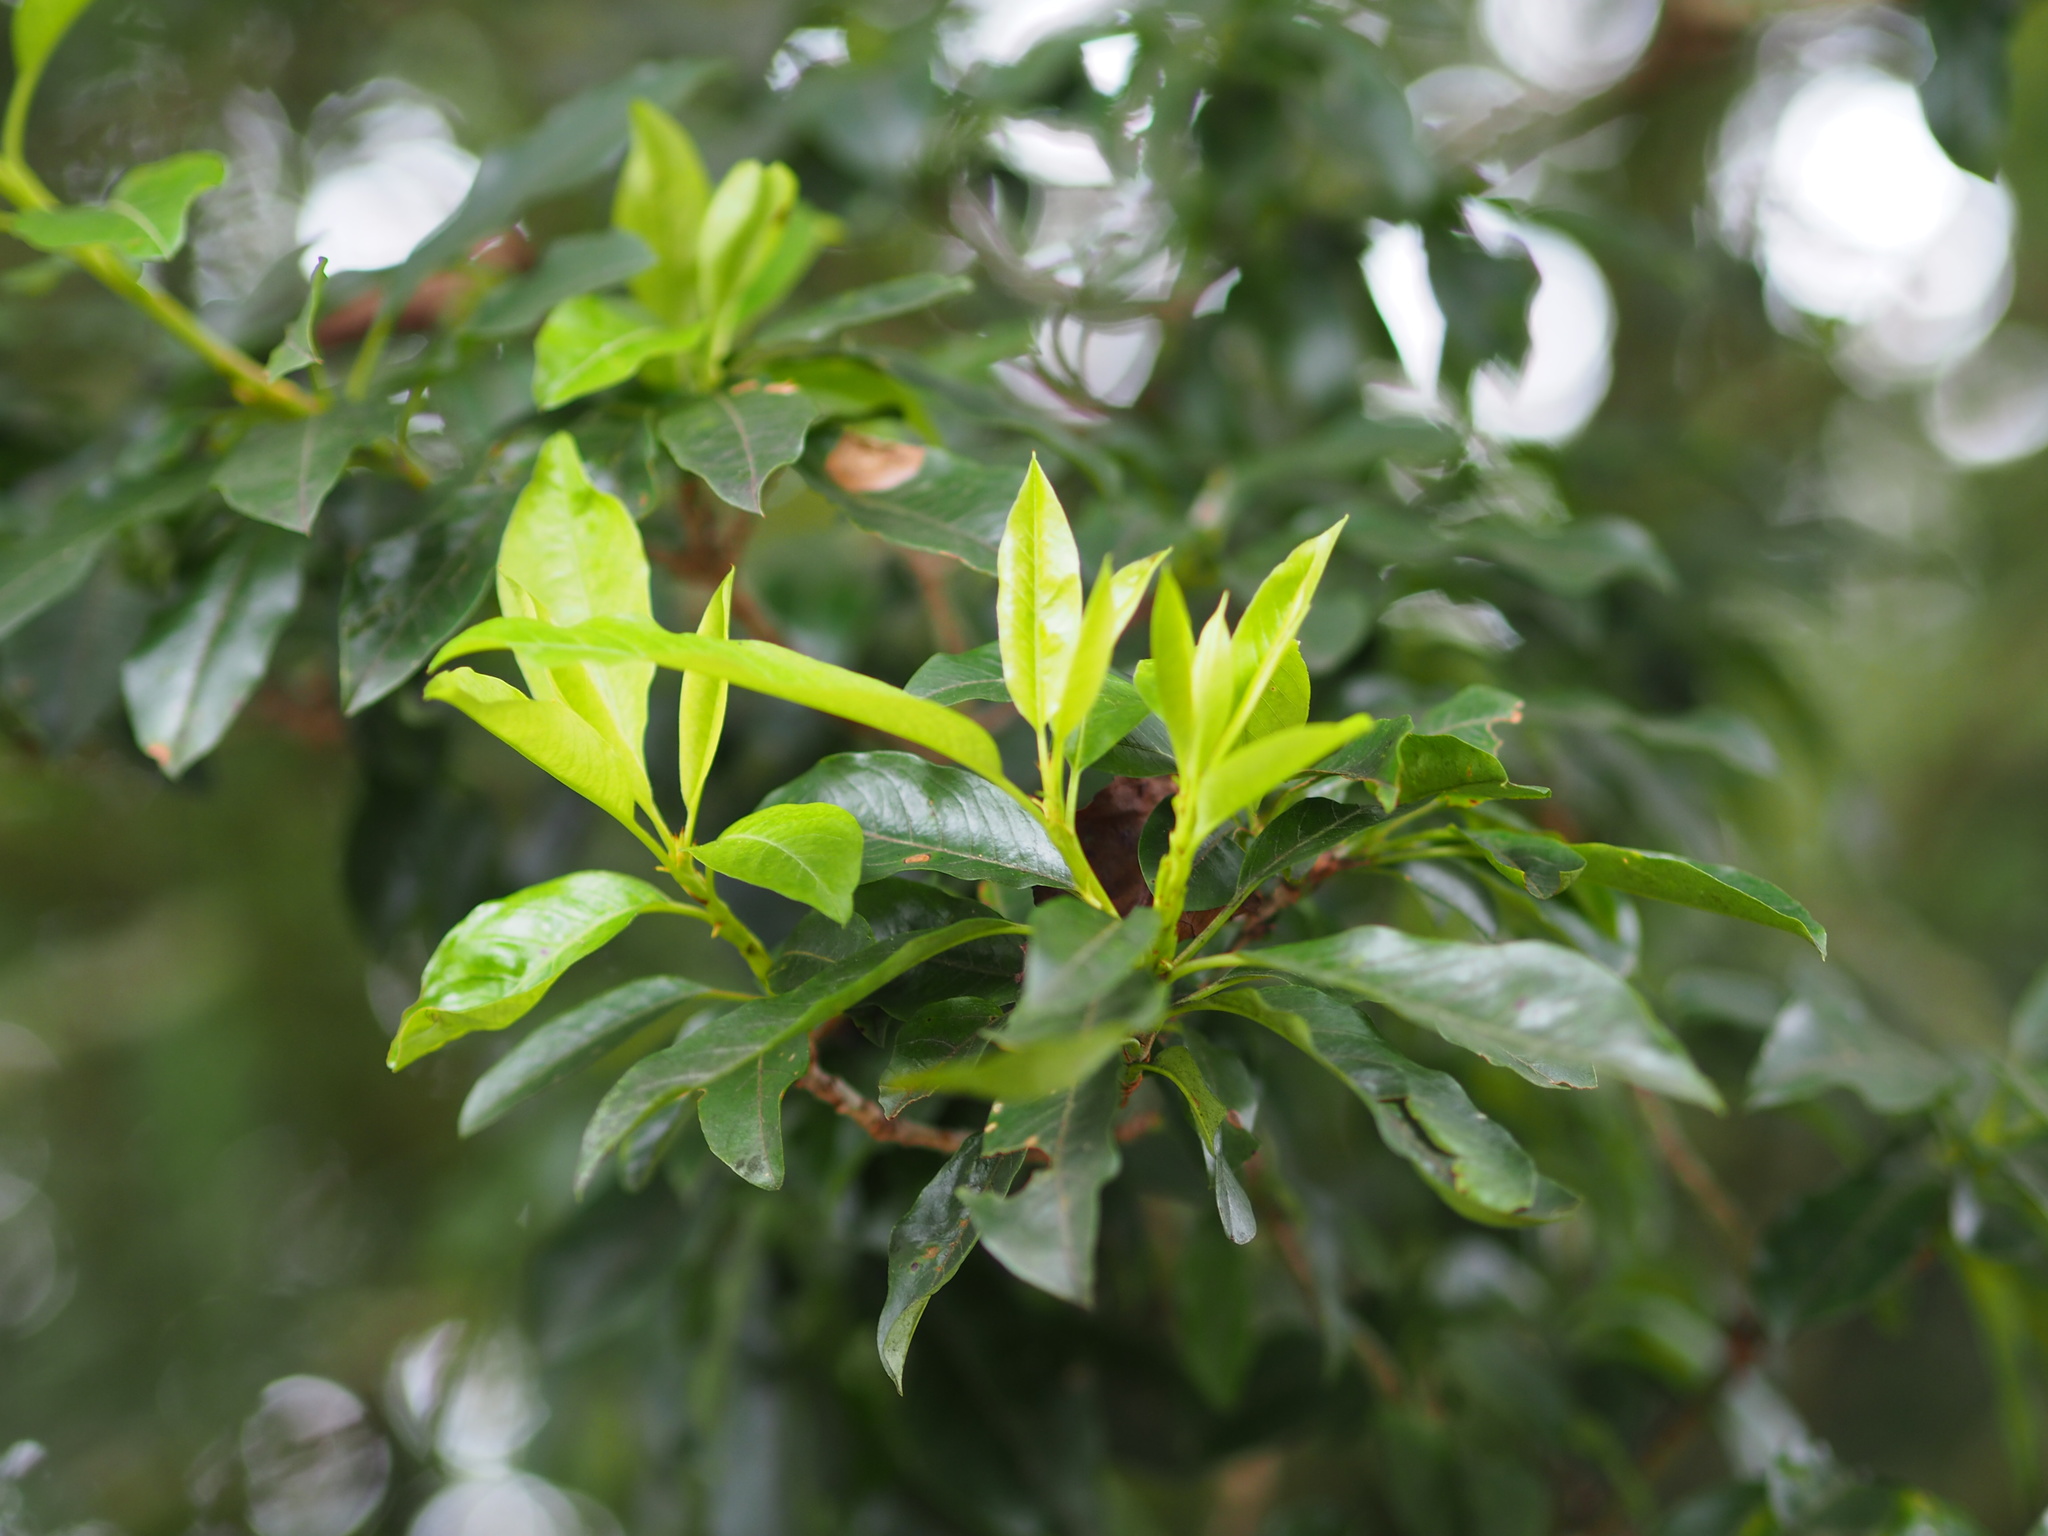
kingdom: Plantae
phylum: Tracheophyta
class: Magnoliopsida
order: Rosales
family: Rosaceae
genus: Stranvaesia
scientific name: Stranvaesia davidiana
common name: Chinese photinia
